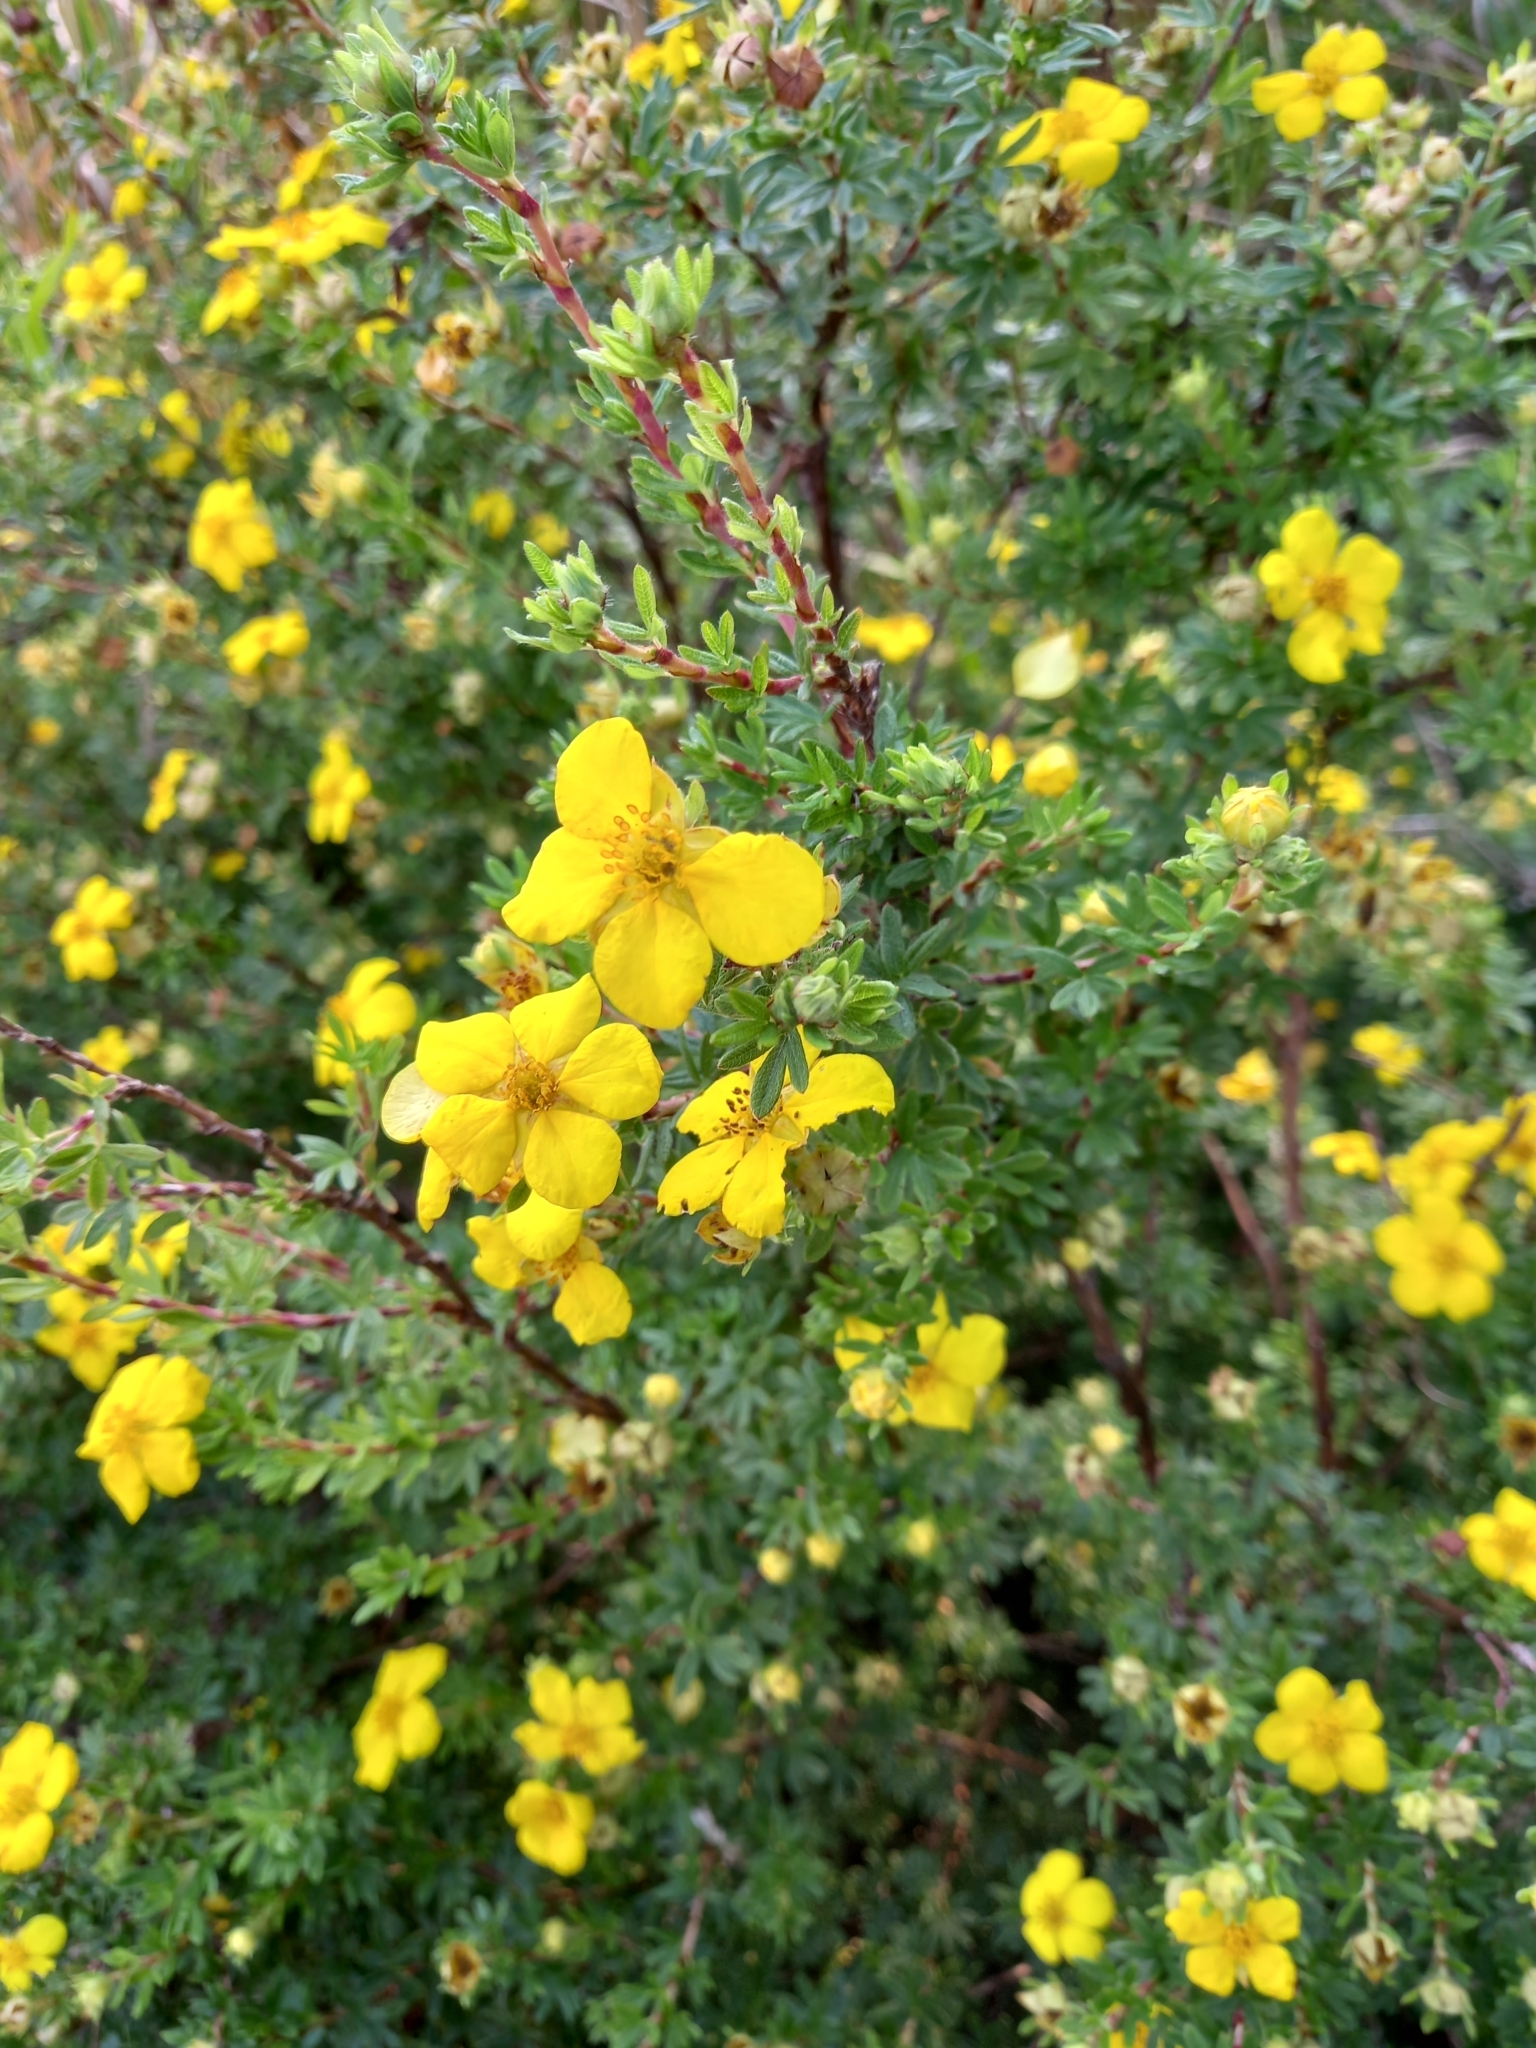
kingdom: Plantae
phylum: Tracheophyta
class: Magnoliopsida
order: Rosales
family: Rosaceae
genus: Potentilla
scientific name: Potentilla erecta
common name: Tormentil
